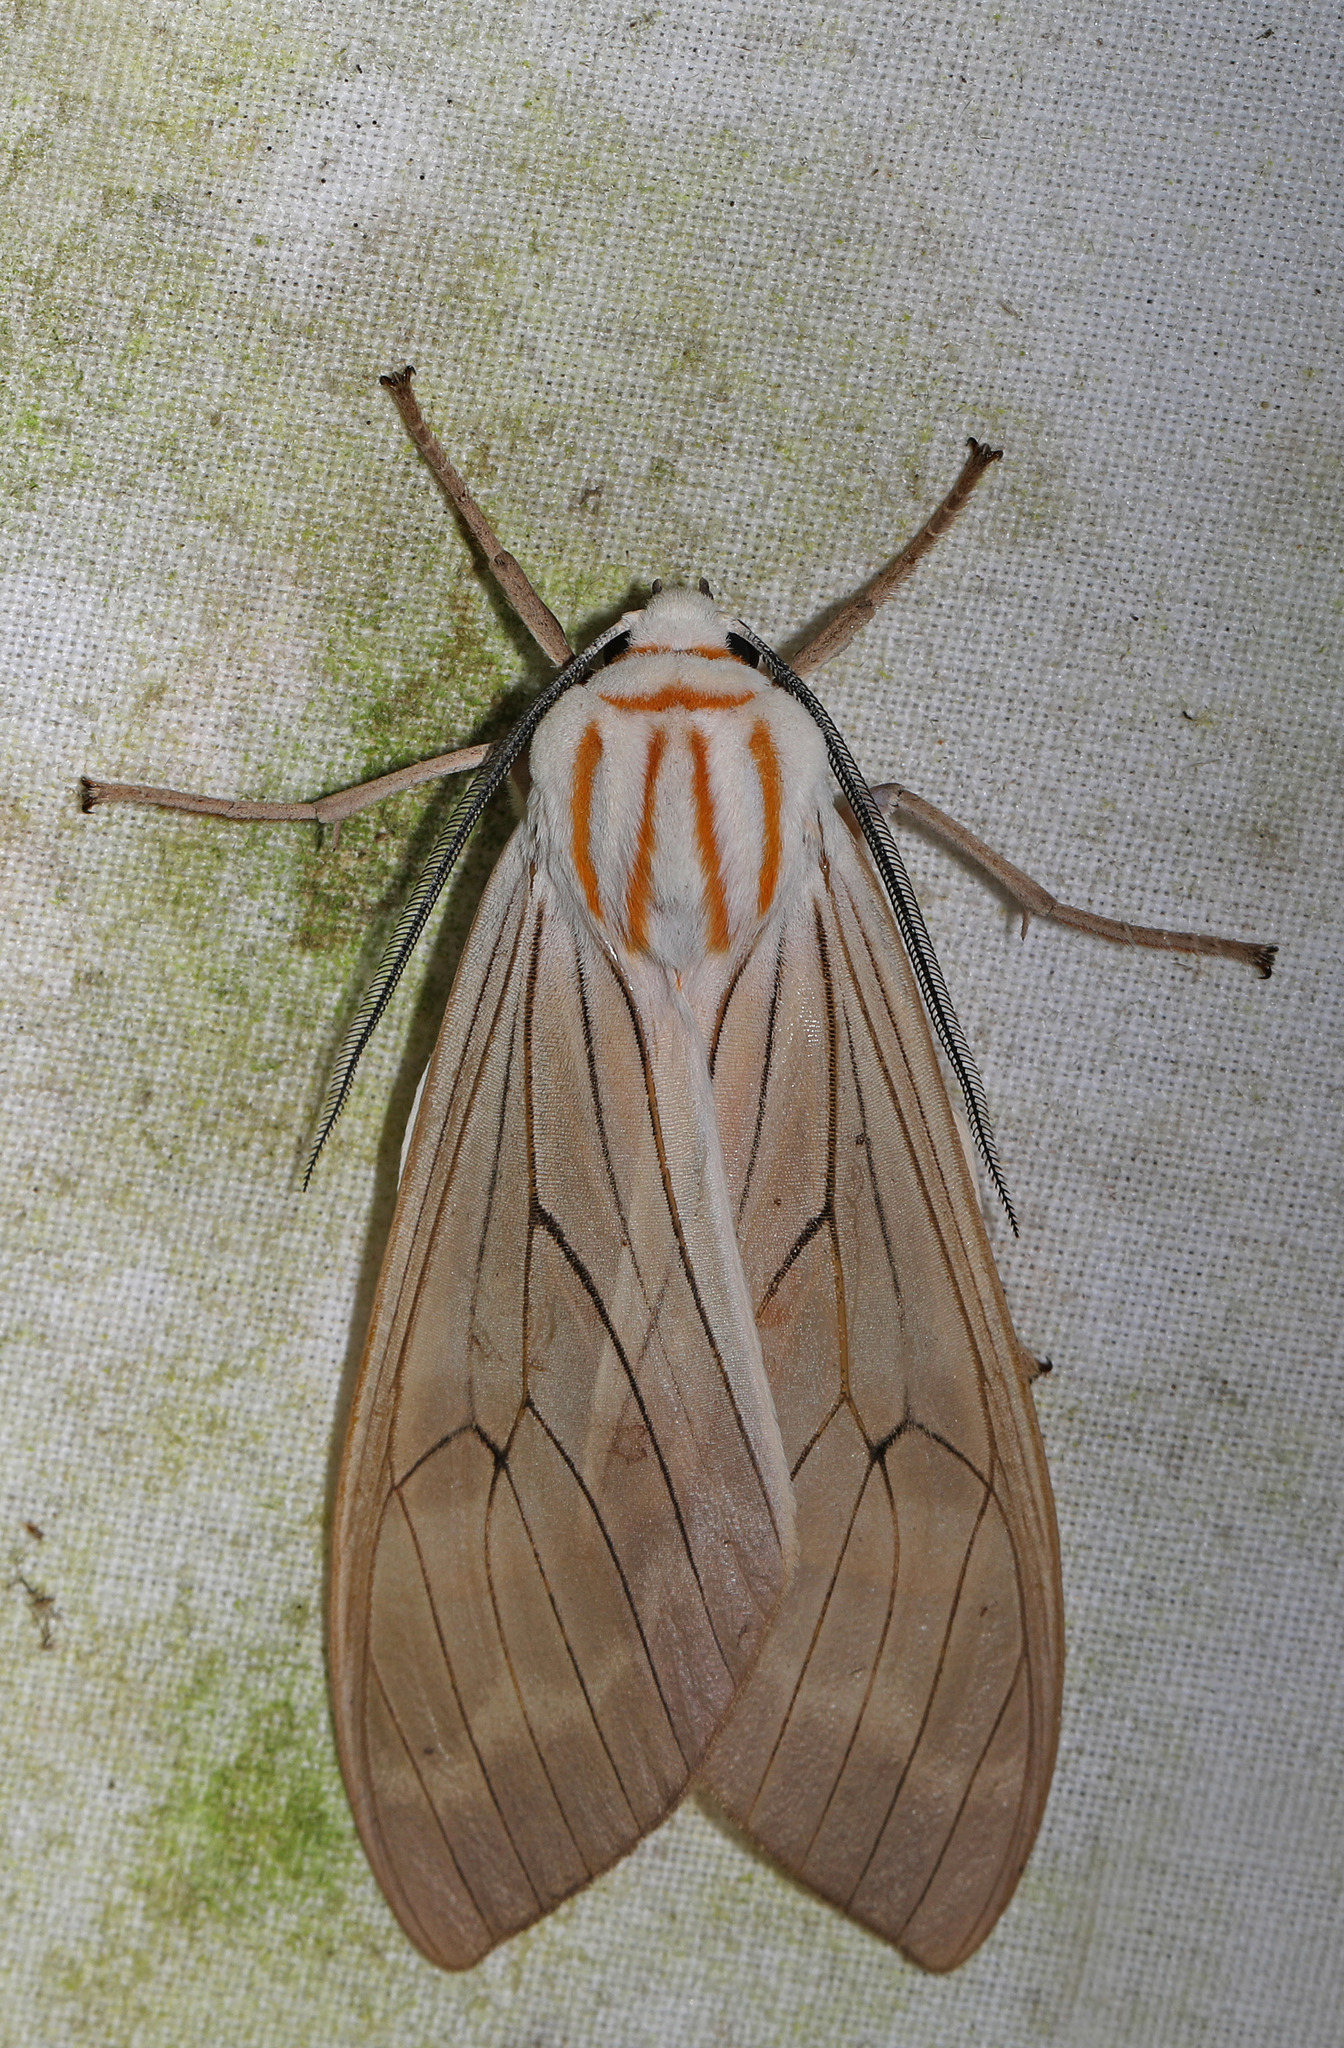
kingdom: Animalia
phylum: Arthropoda
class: Insecta
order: Lepidoptera
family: Erebidae
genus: Amastus
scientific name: Amastus aconia
